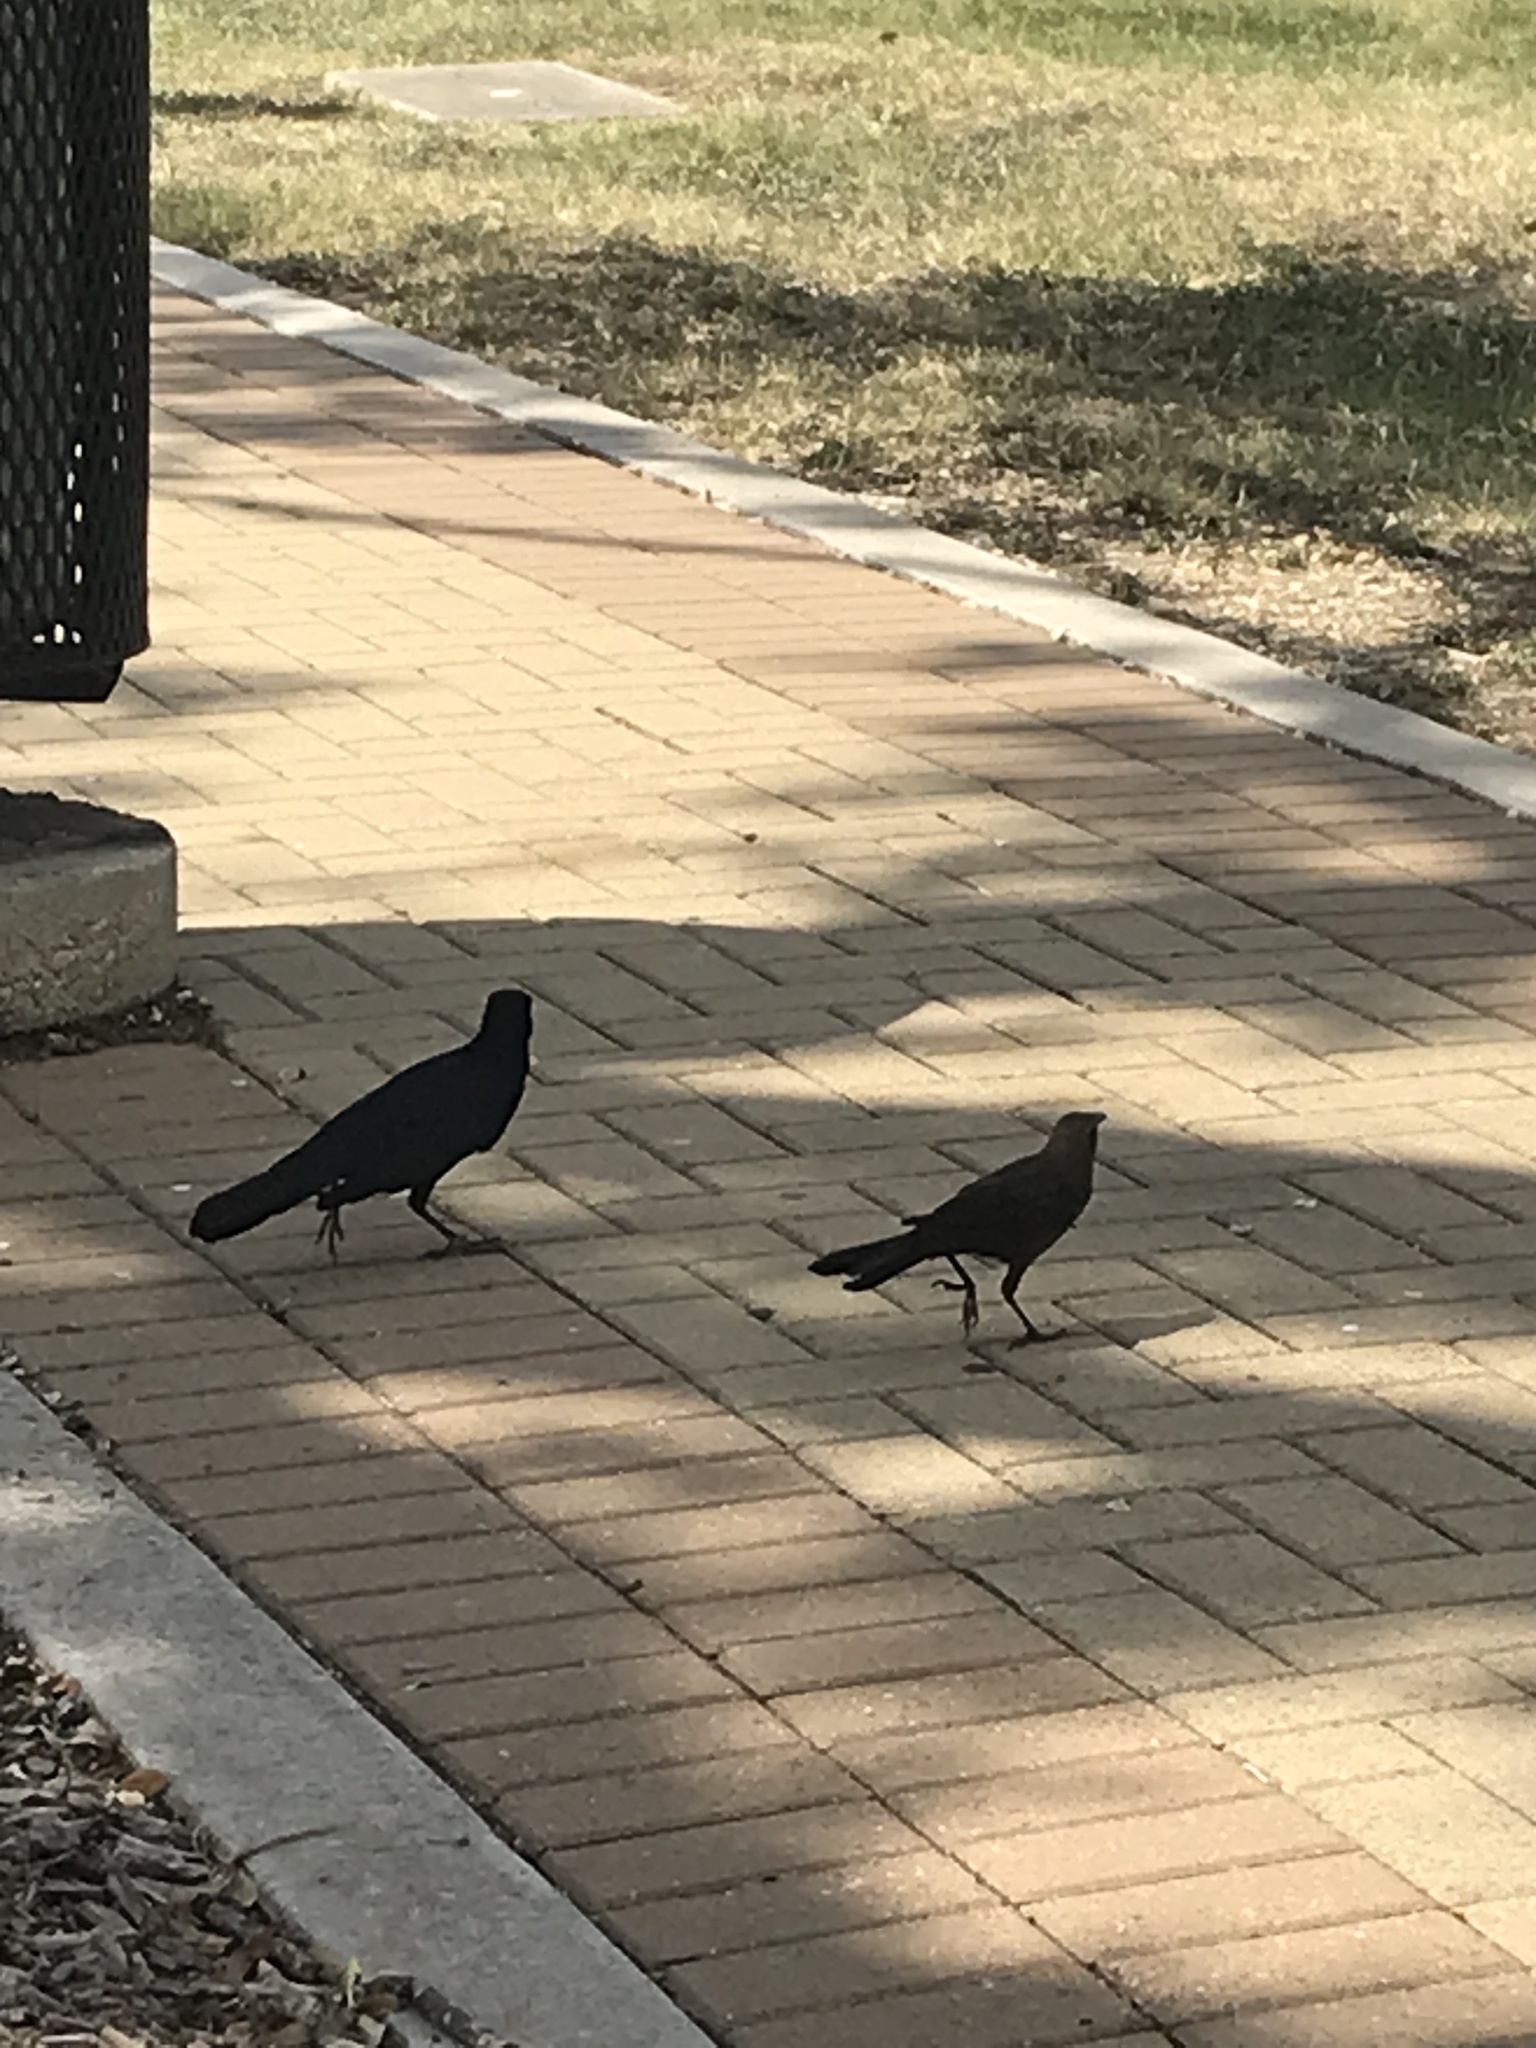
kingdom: Animalia
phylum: Chordata
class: Aves
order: Passeriformes
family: Icteridae
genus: Quiscalus
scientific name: Quiscalus mexicanus
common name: Great-tailed grackle
